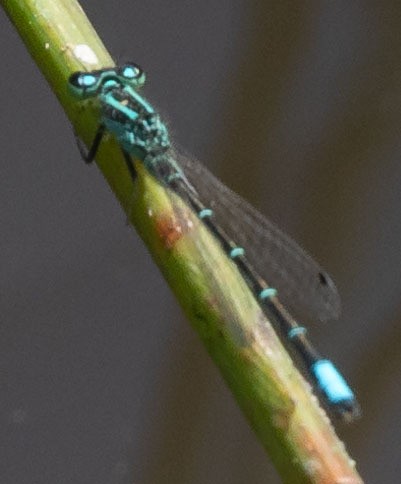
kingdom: Animalia
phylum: Arthropoda
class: Insecta
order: Odonata
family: Coenagrionidae
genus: Ischnura
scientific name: Ischnura perparva
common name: Western forktail
